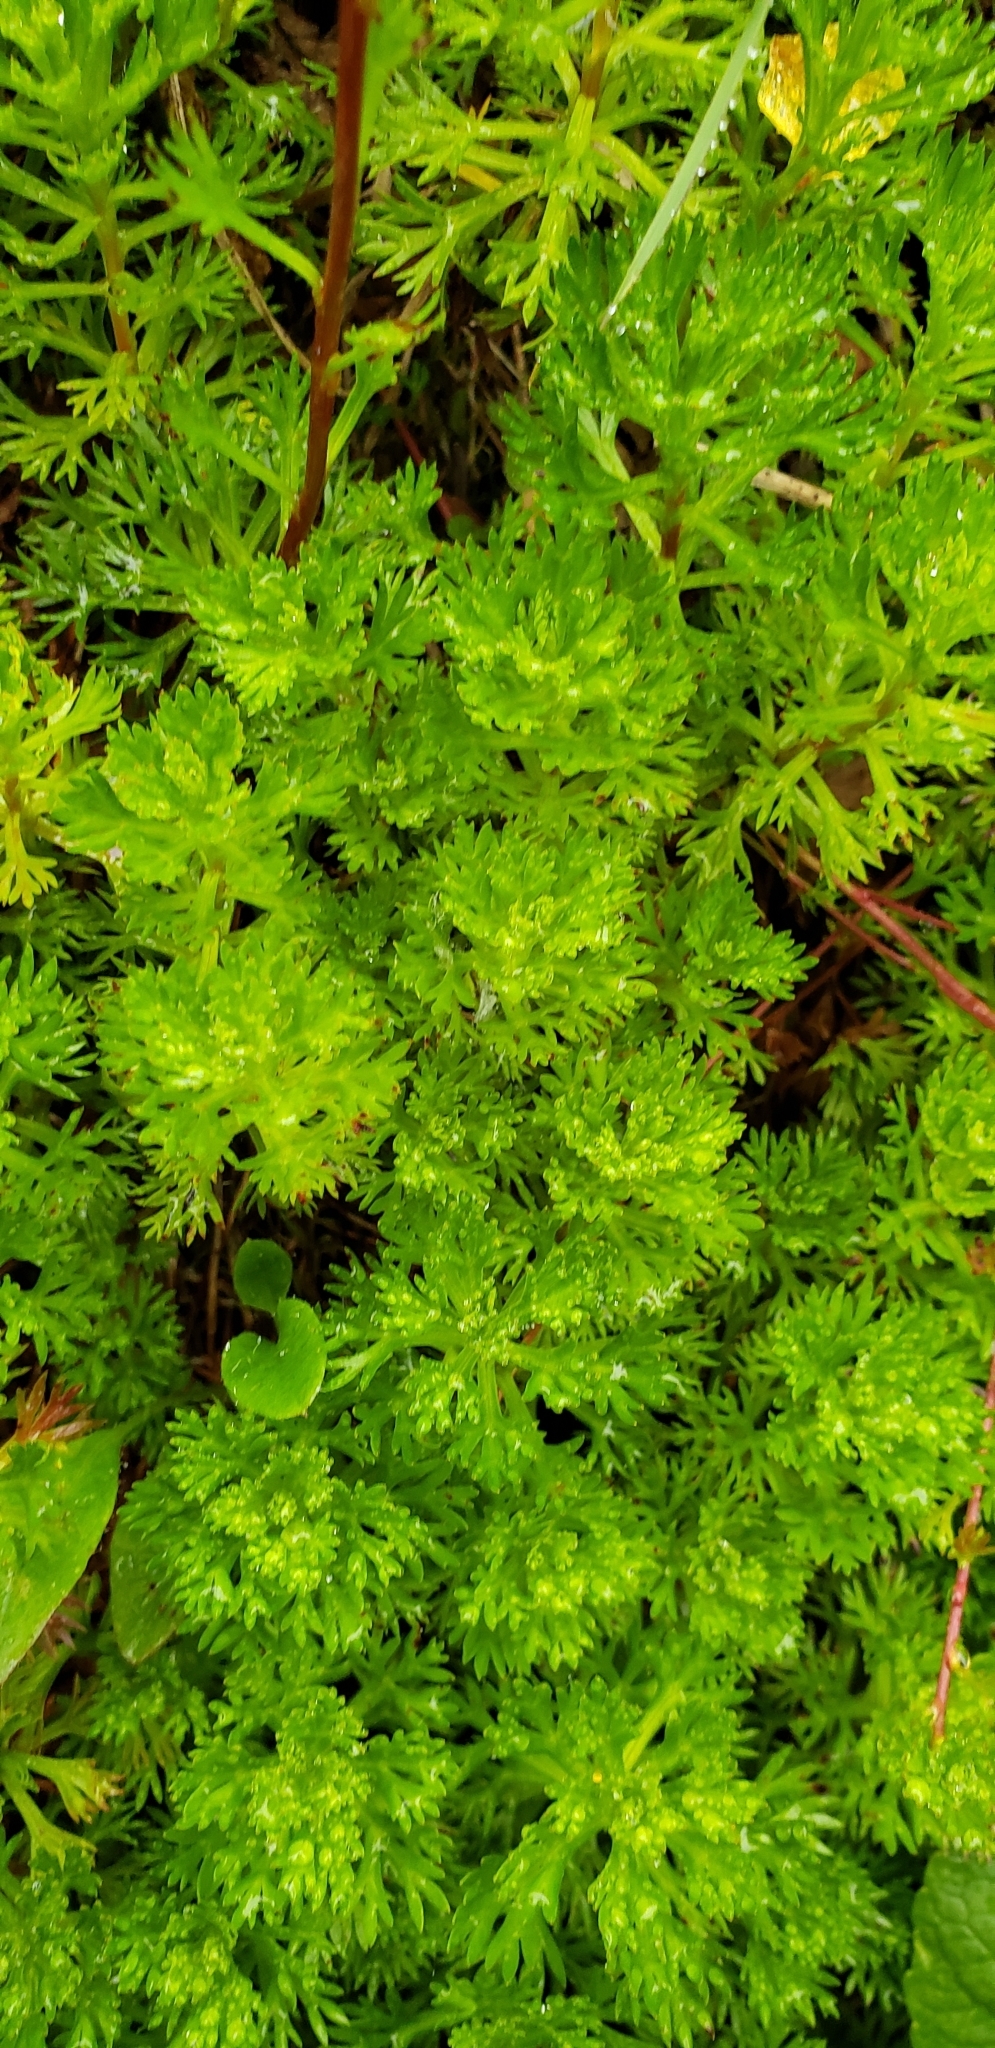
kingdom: Plantae
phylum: Tracheophyta
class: Magnoliopsida
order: Rosales
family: Rosaceae
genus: Luetkea
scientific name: Luetkea pectinata
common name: Partridgefoot
